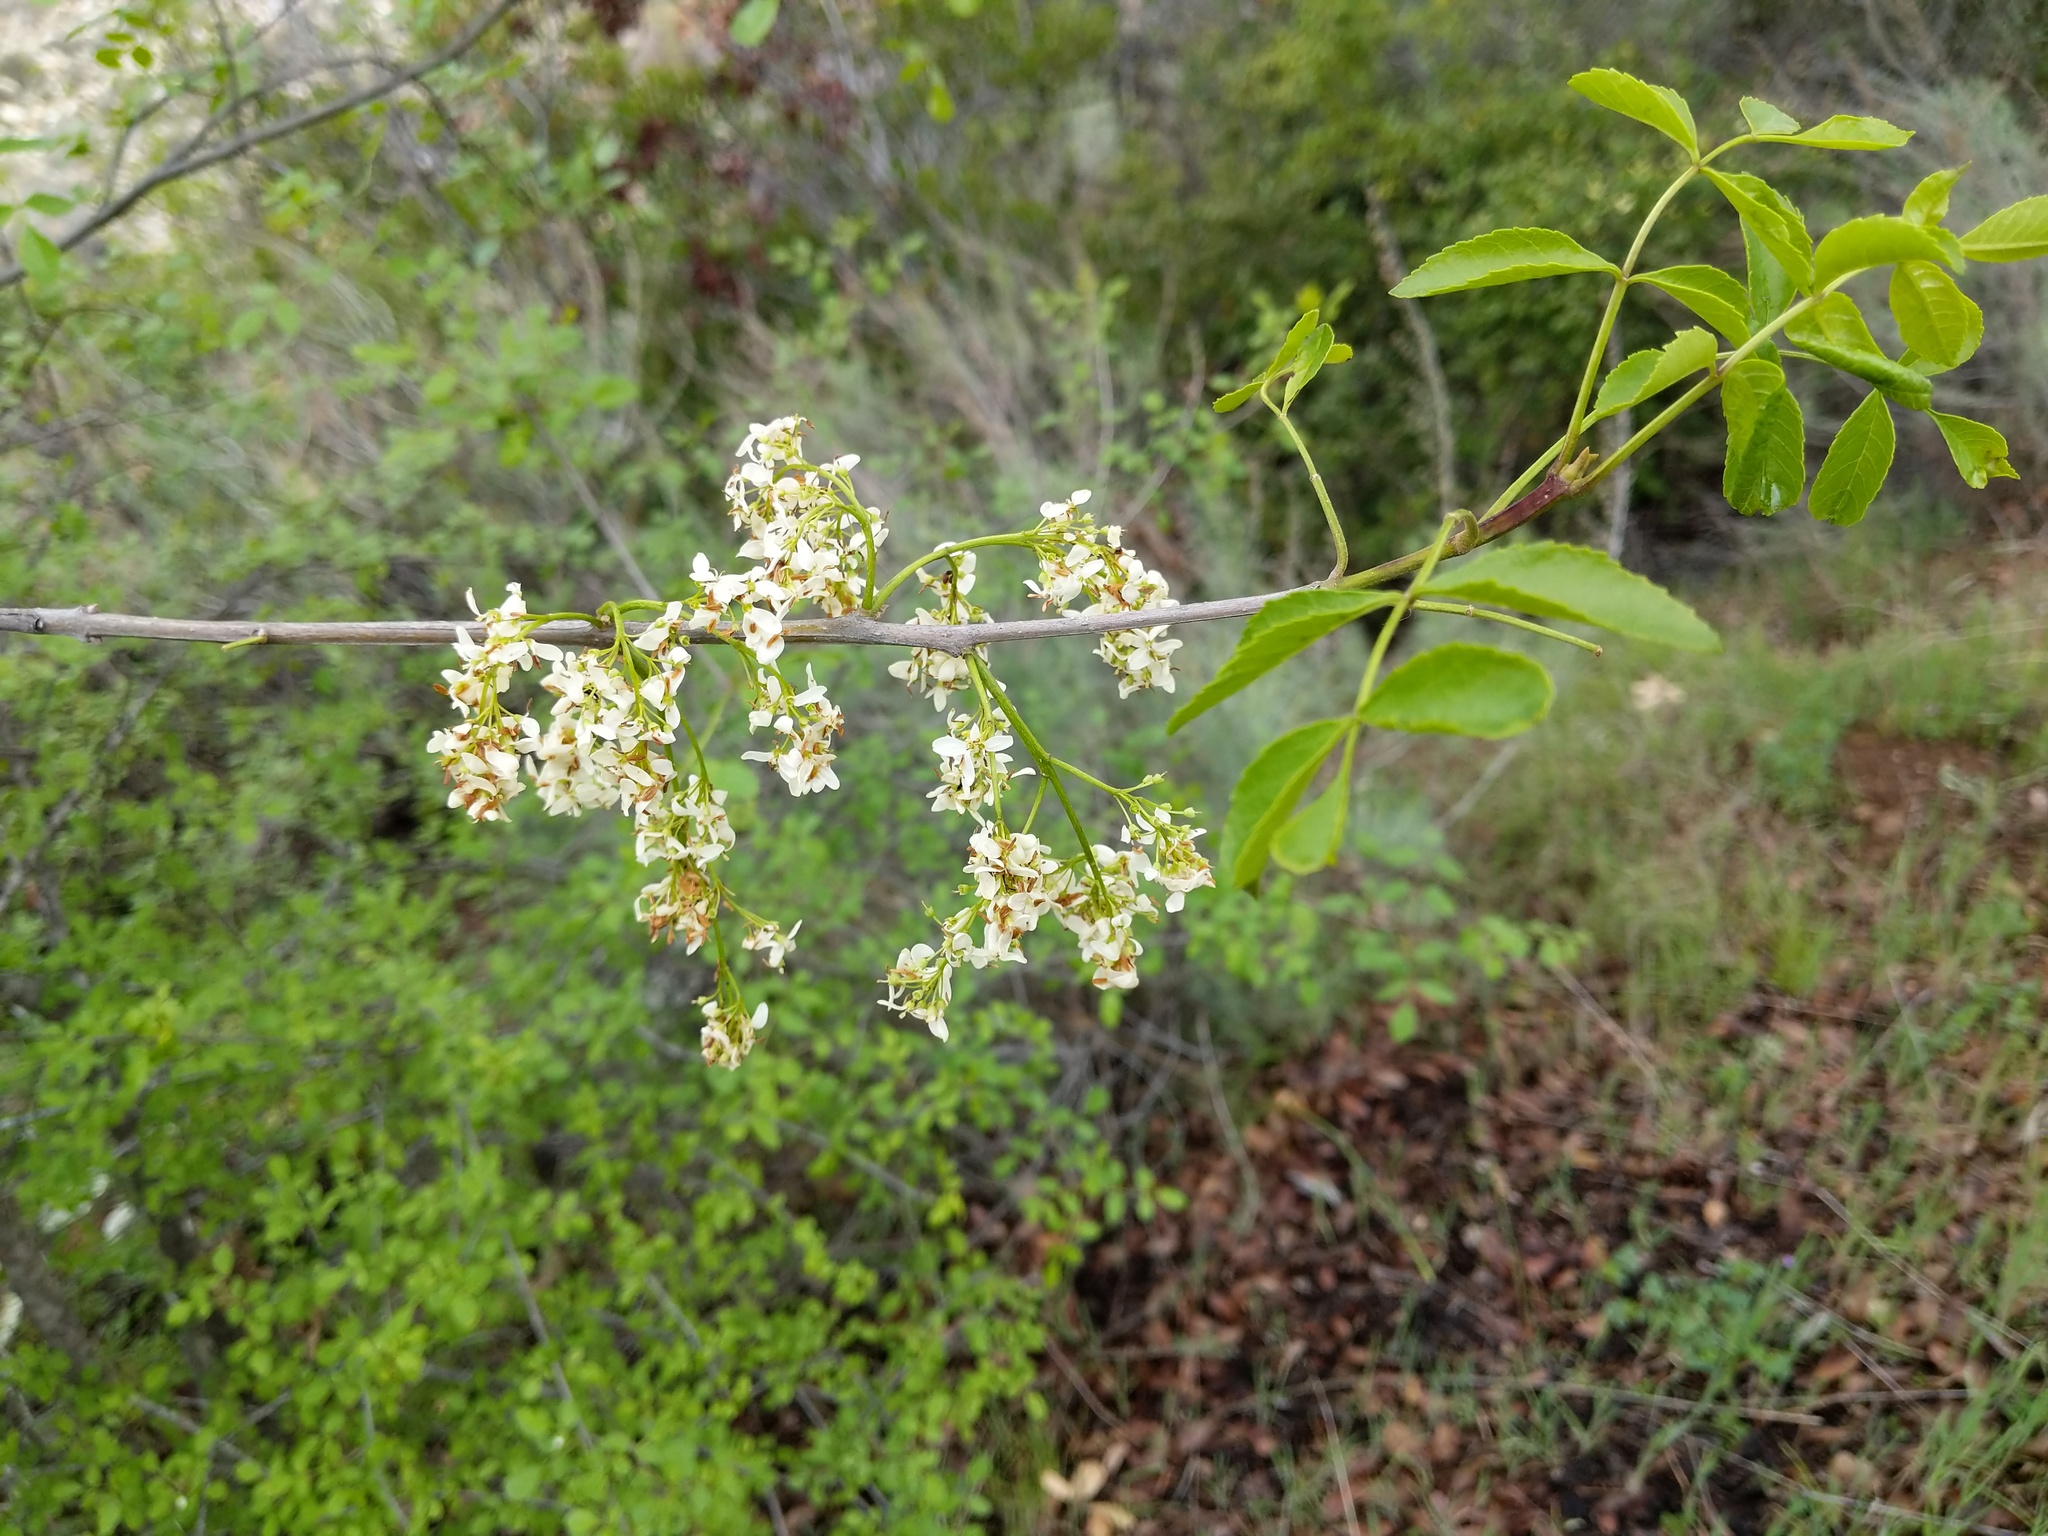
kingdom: Plantae
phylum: Tracheophyta
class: Magnoliopsida
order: Lamiales
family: Oleaceae
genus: Fraxinus
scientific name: Fraxinus dipetala
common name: California ash
